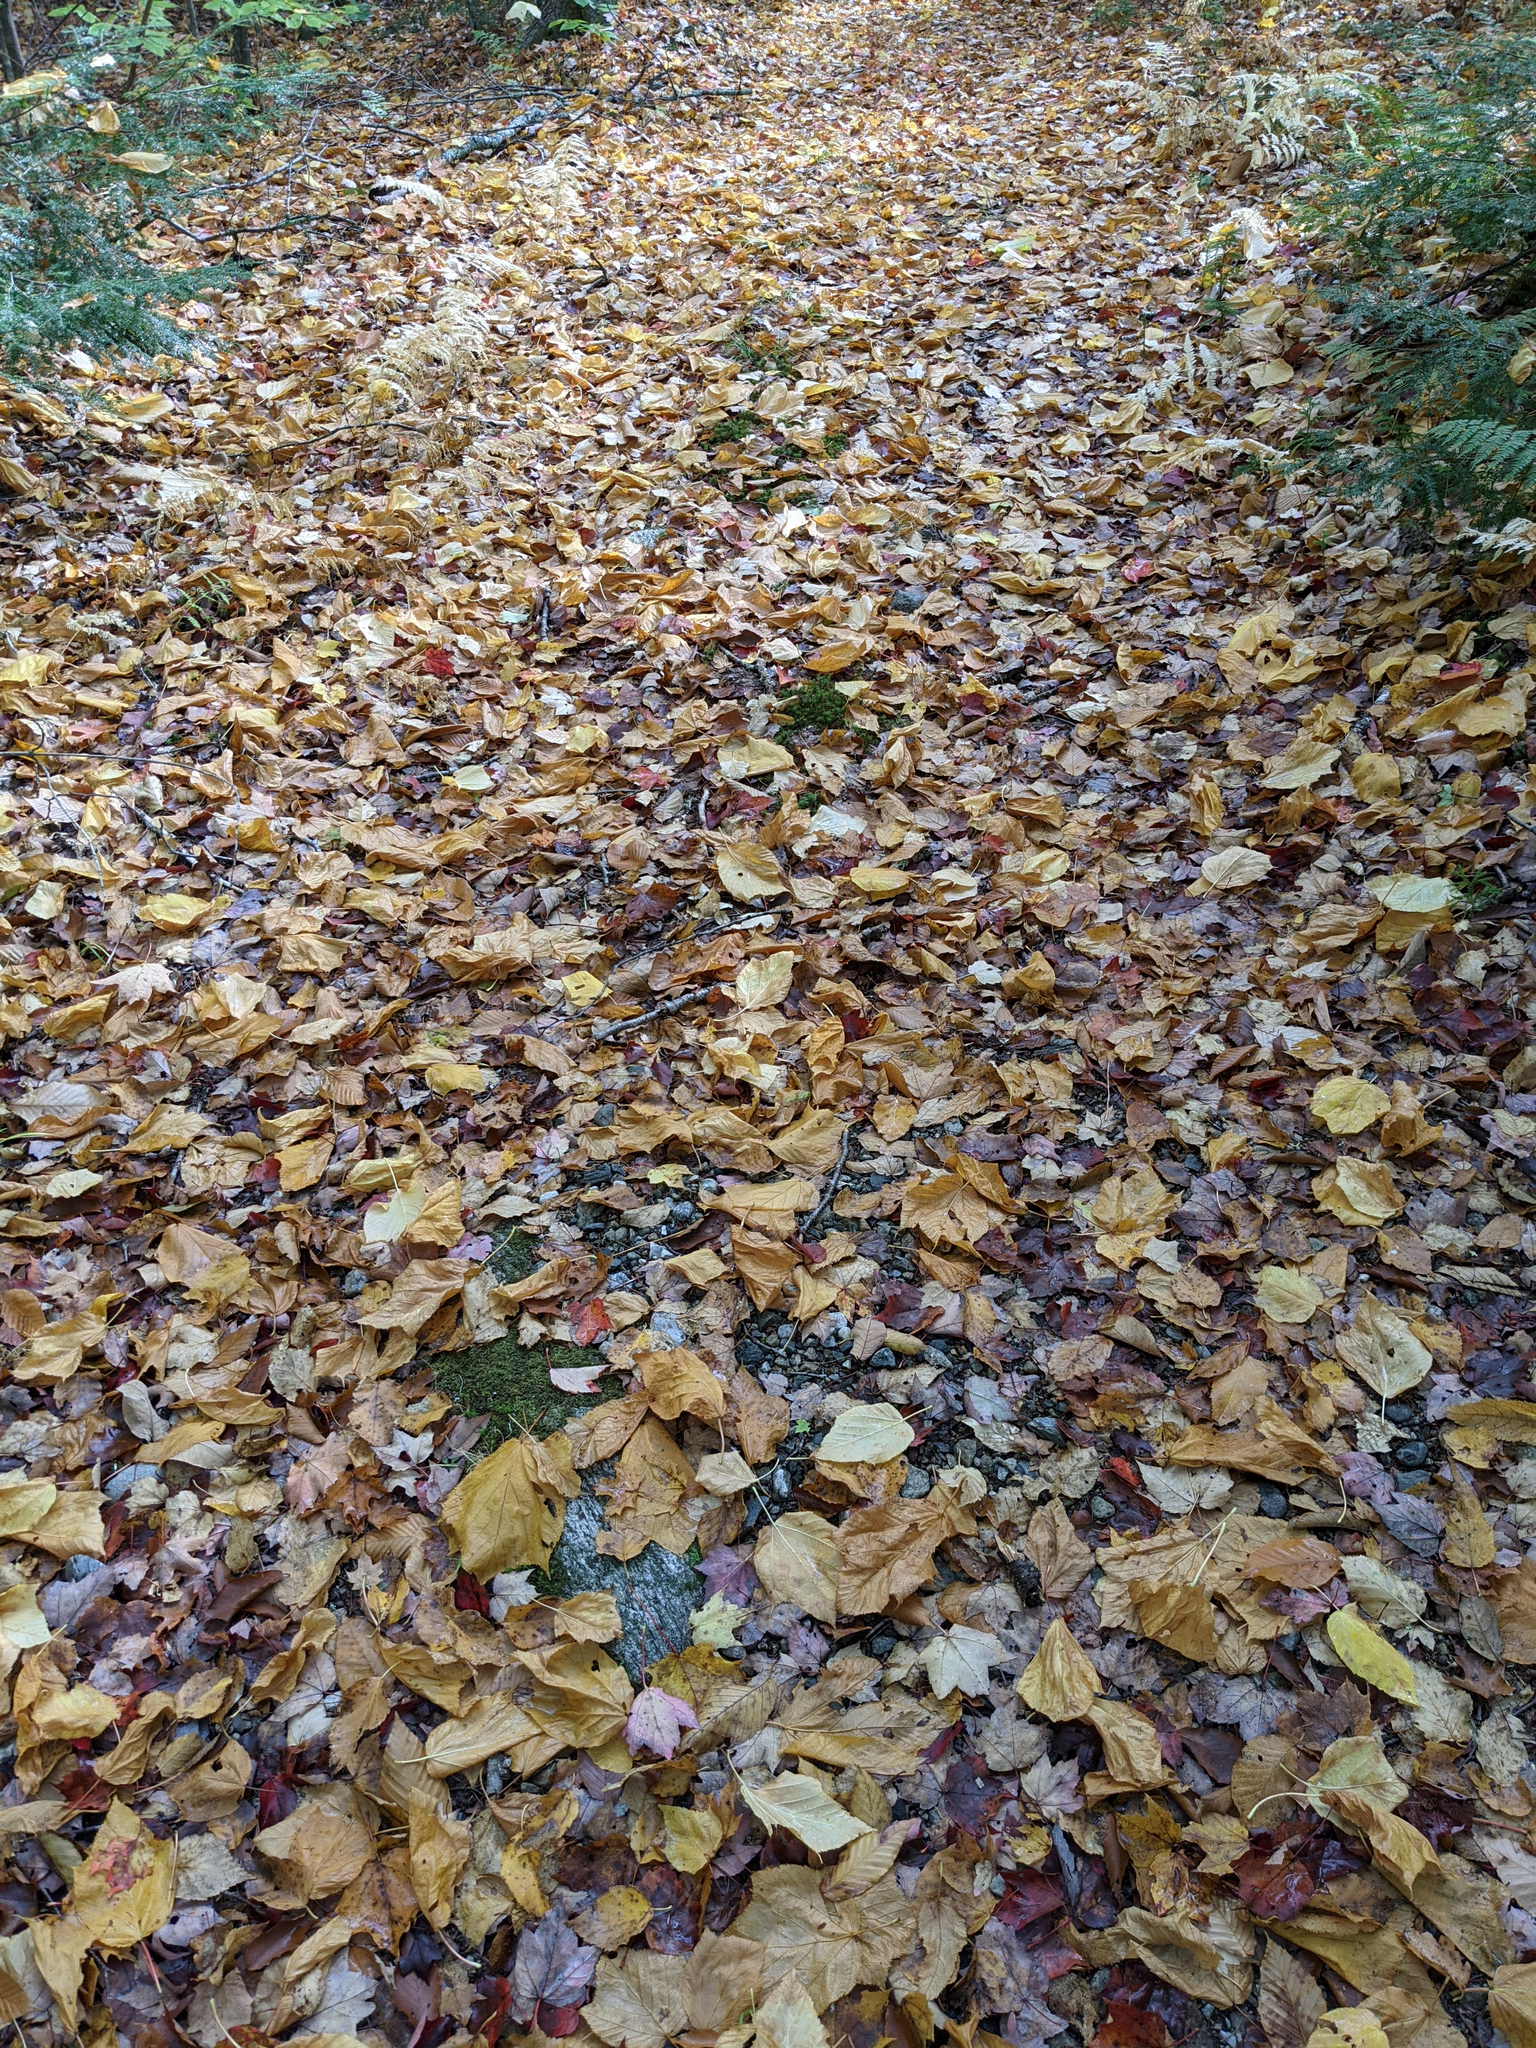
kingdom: Plantae
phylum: Tracheophyta
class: Magnoliopsida
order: Sapindales
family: Sapindaceae
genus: Acer
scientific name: Acer pensylvanicum
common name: Moosewood
